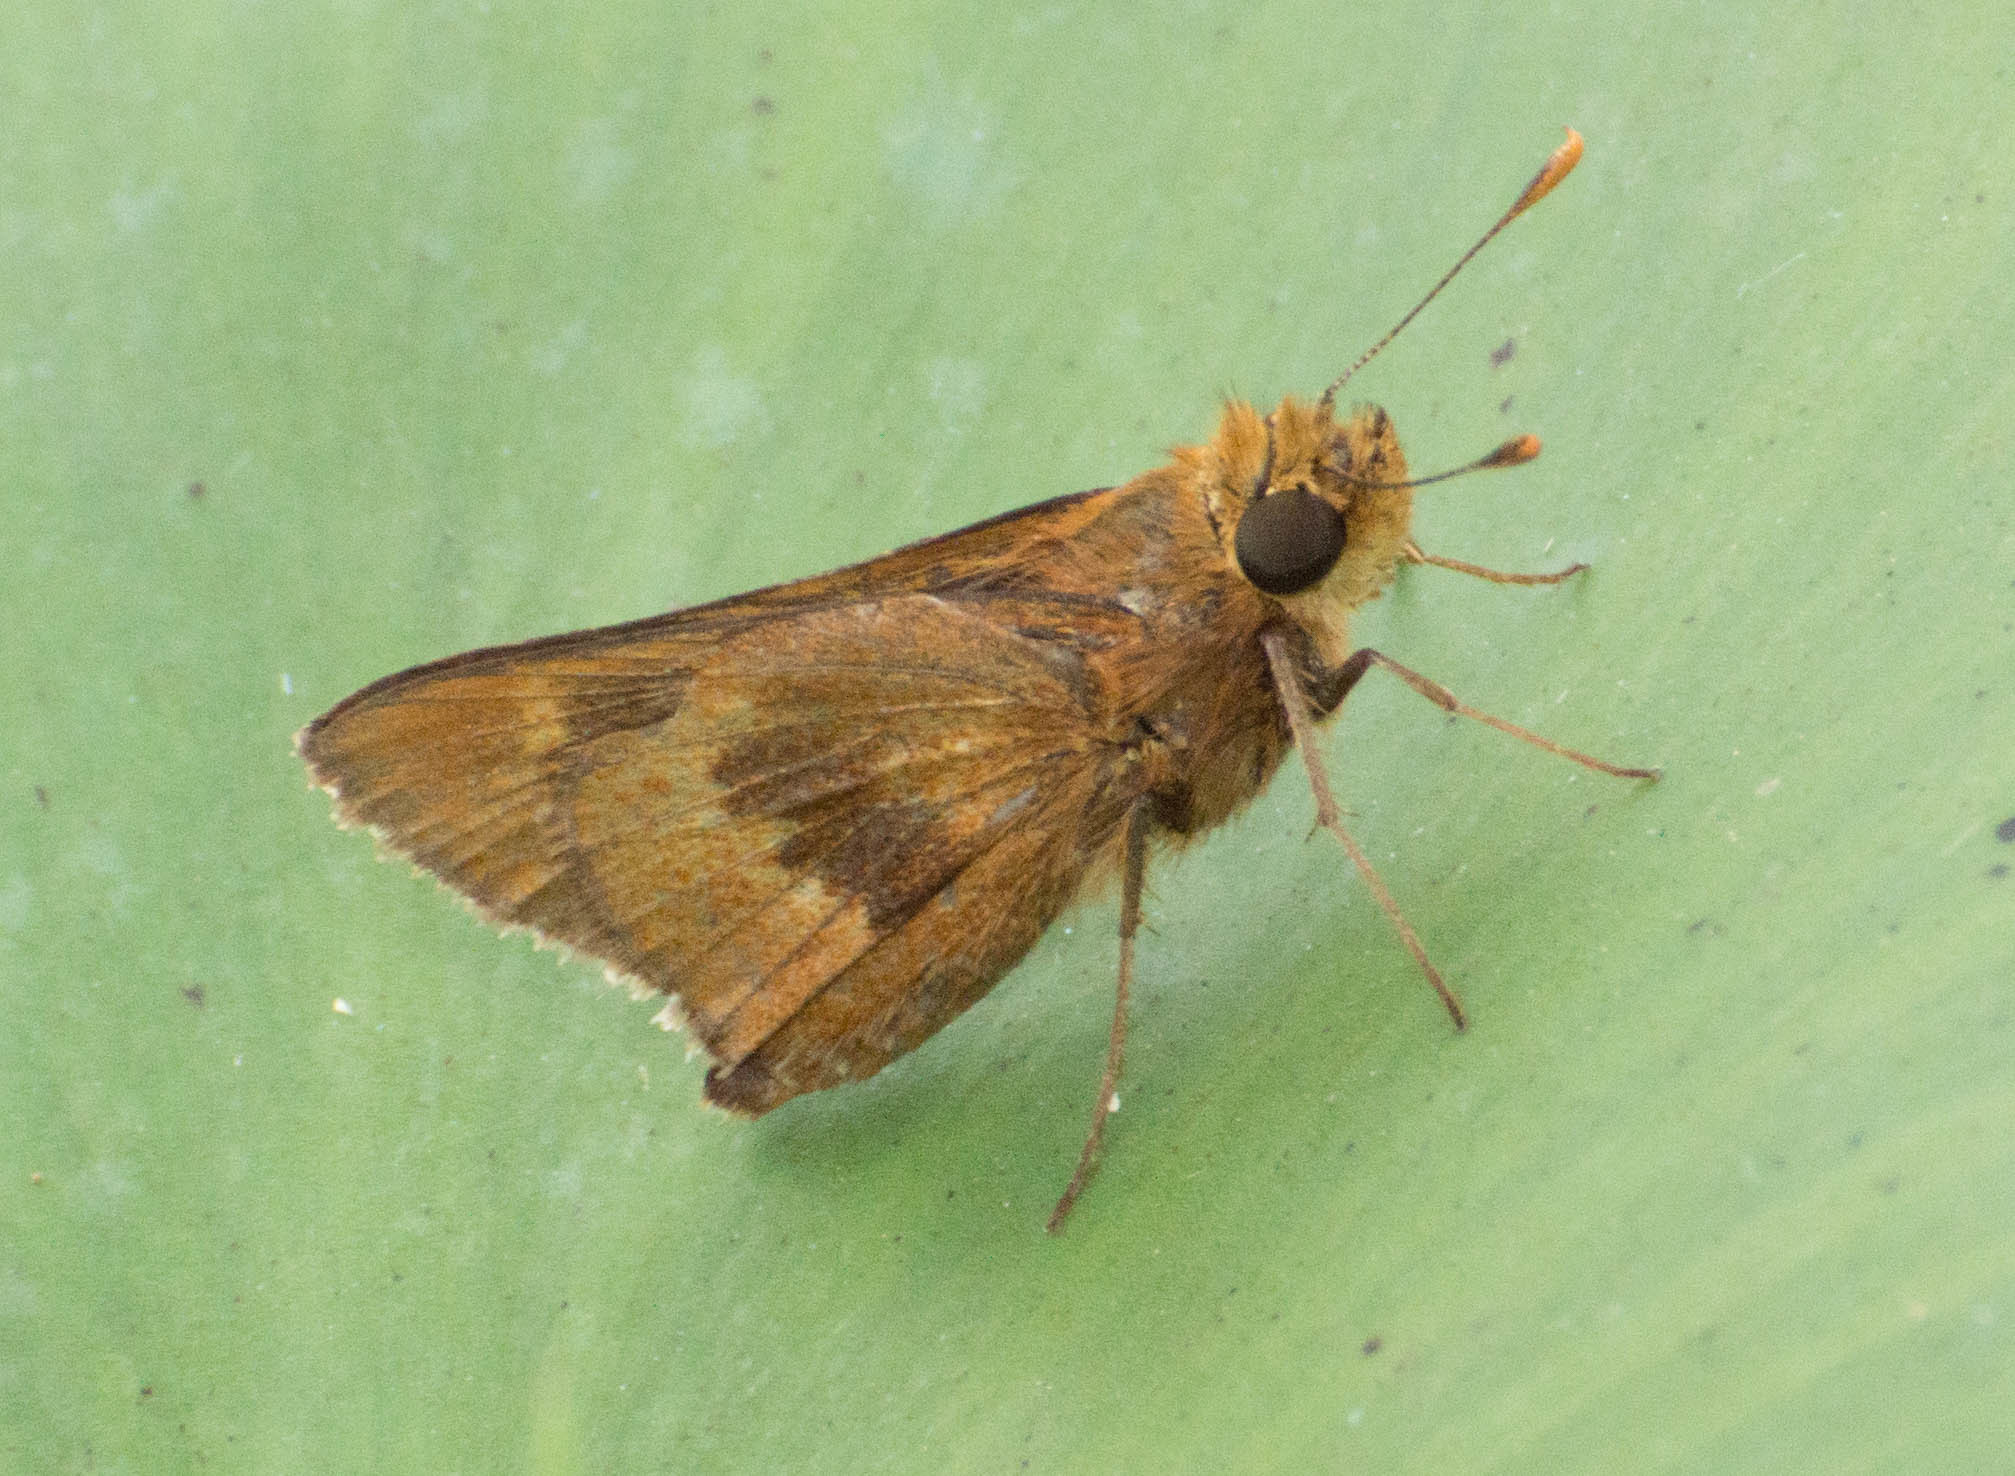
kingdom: Animalia
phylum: Arthropoda
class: Insecta
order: Lepidoptera
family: Hesperiidae
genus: Polites
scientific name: Polites premnas
